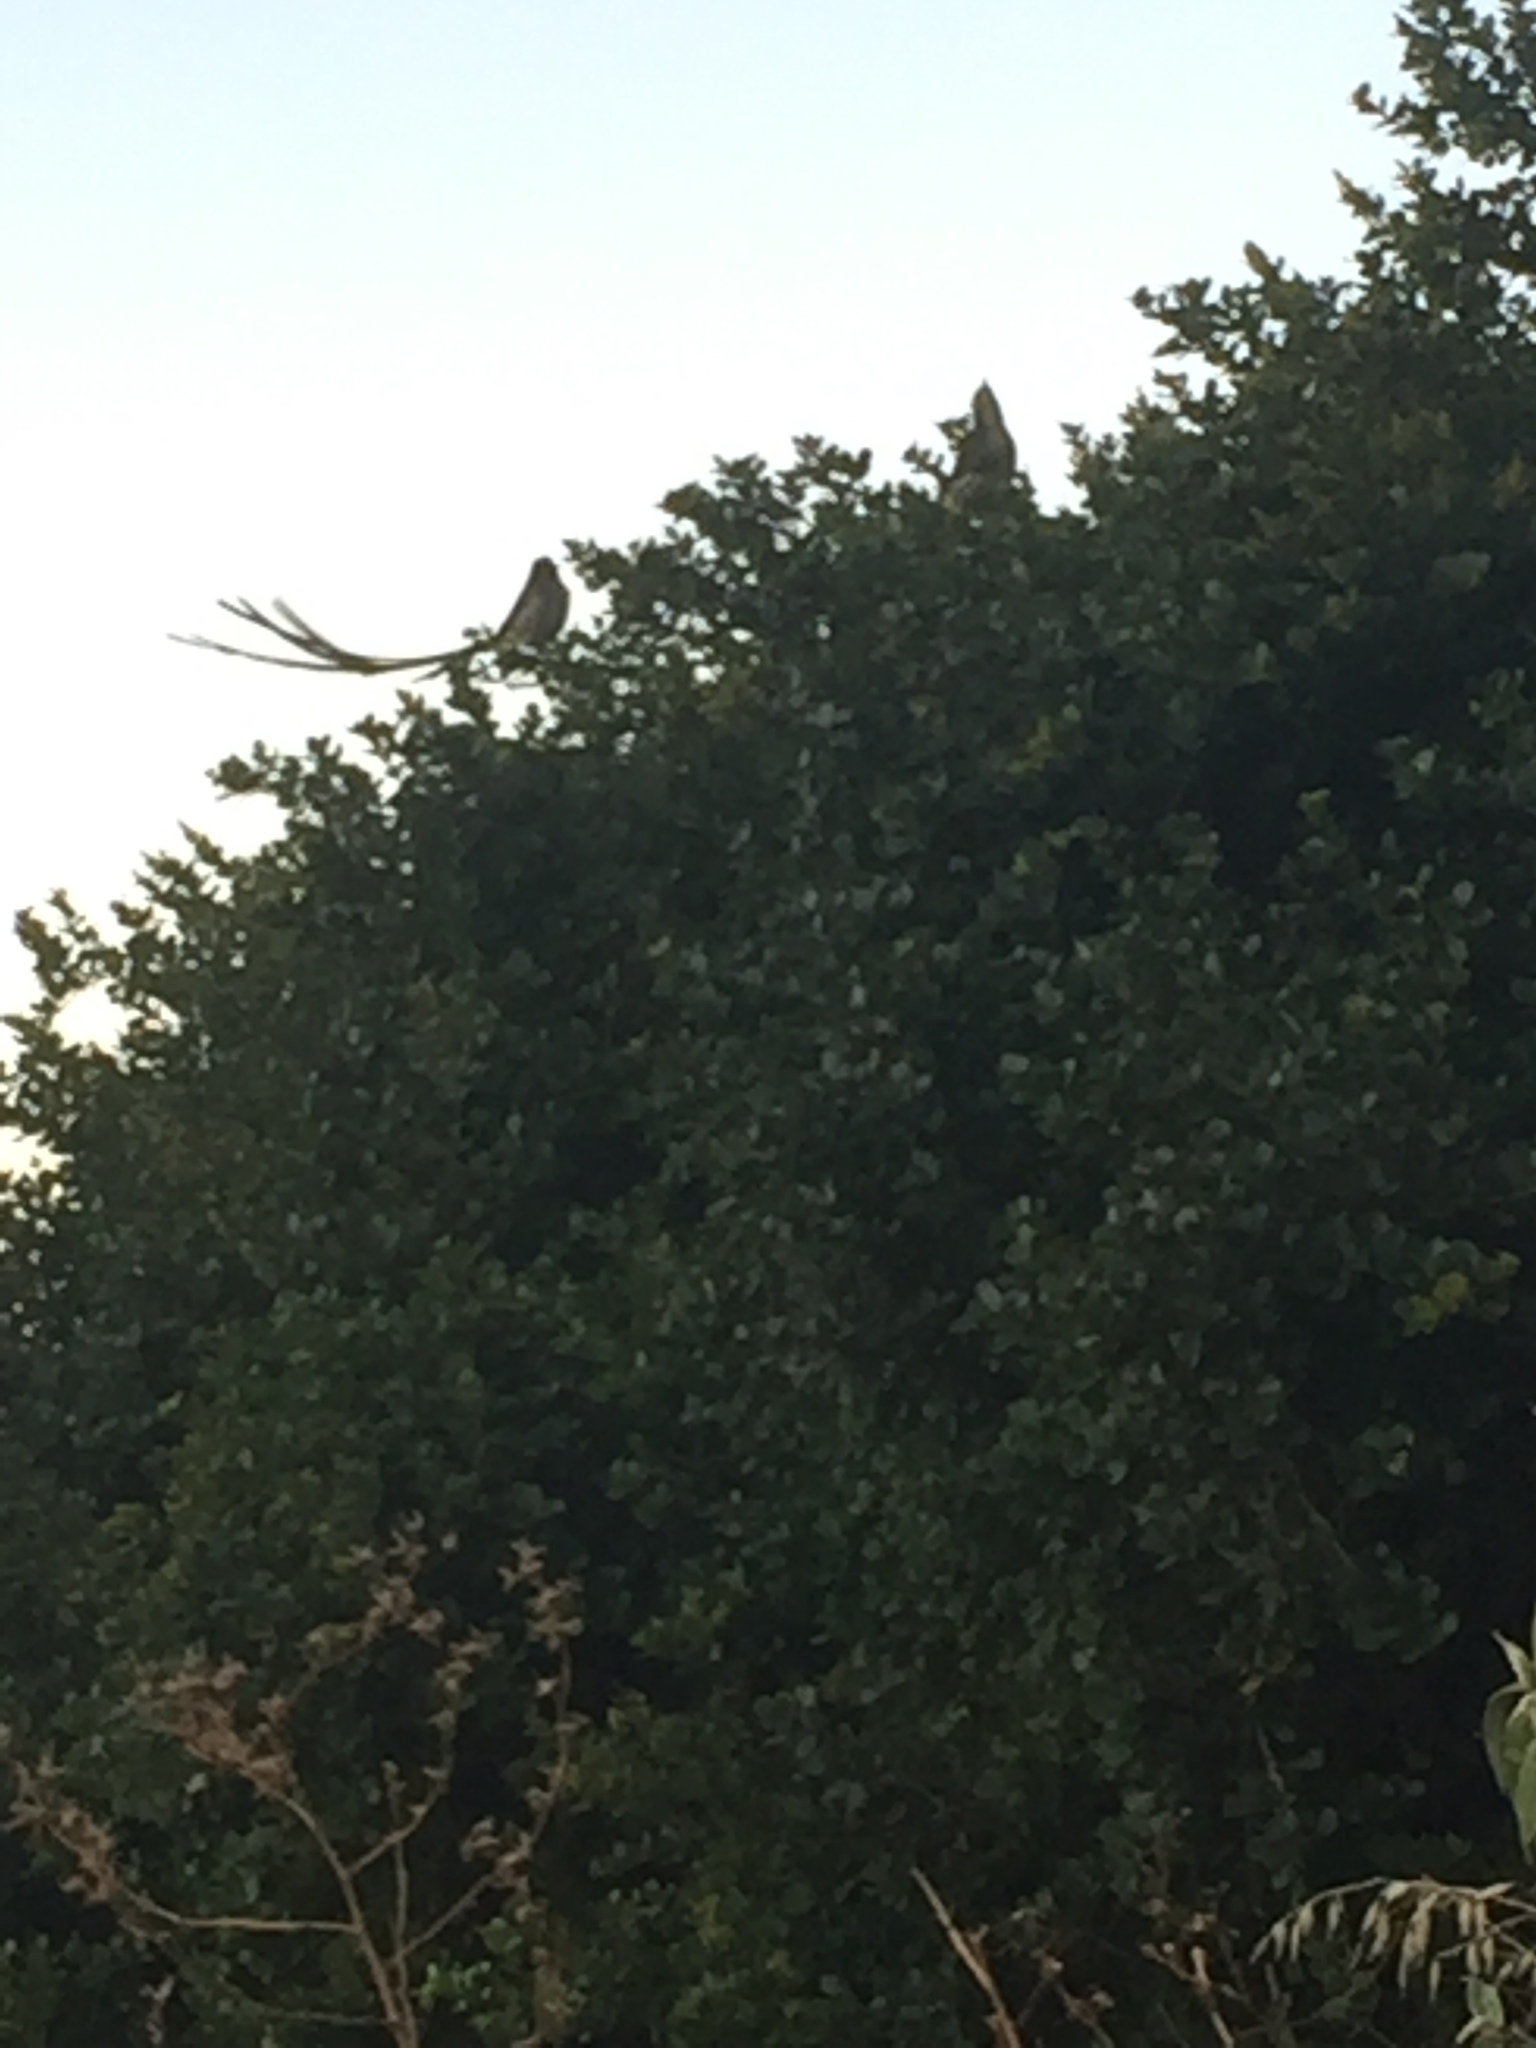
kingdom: Animalia
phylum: Chordata
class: Aves
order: Passeriformes
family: Promeropidae
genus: Promerops
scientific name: Promerops cafer
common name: Cape sugarbird
